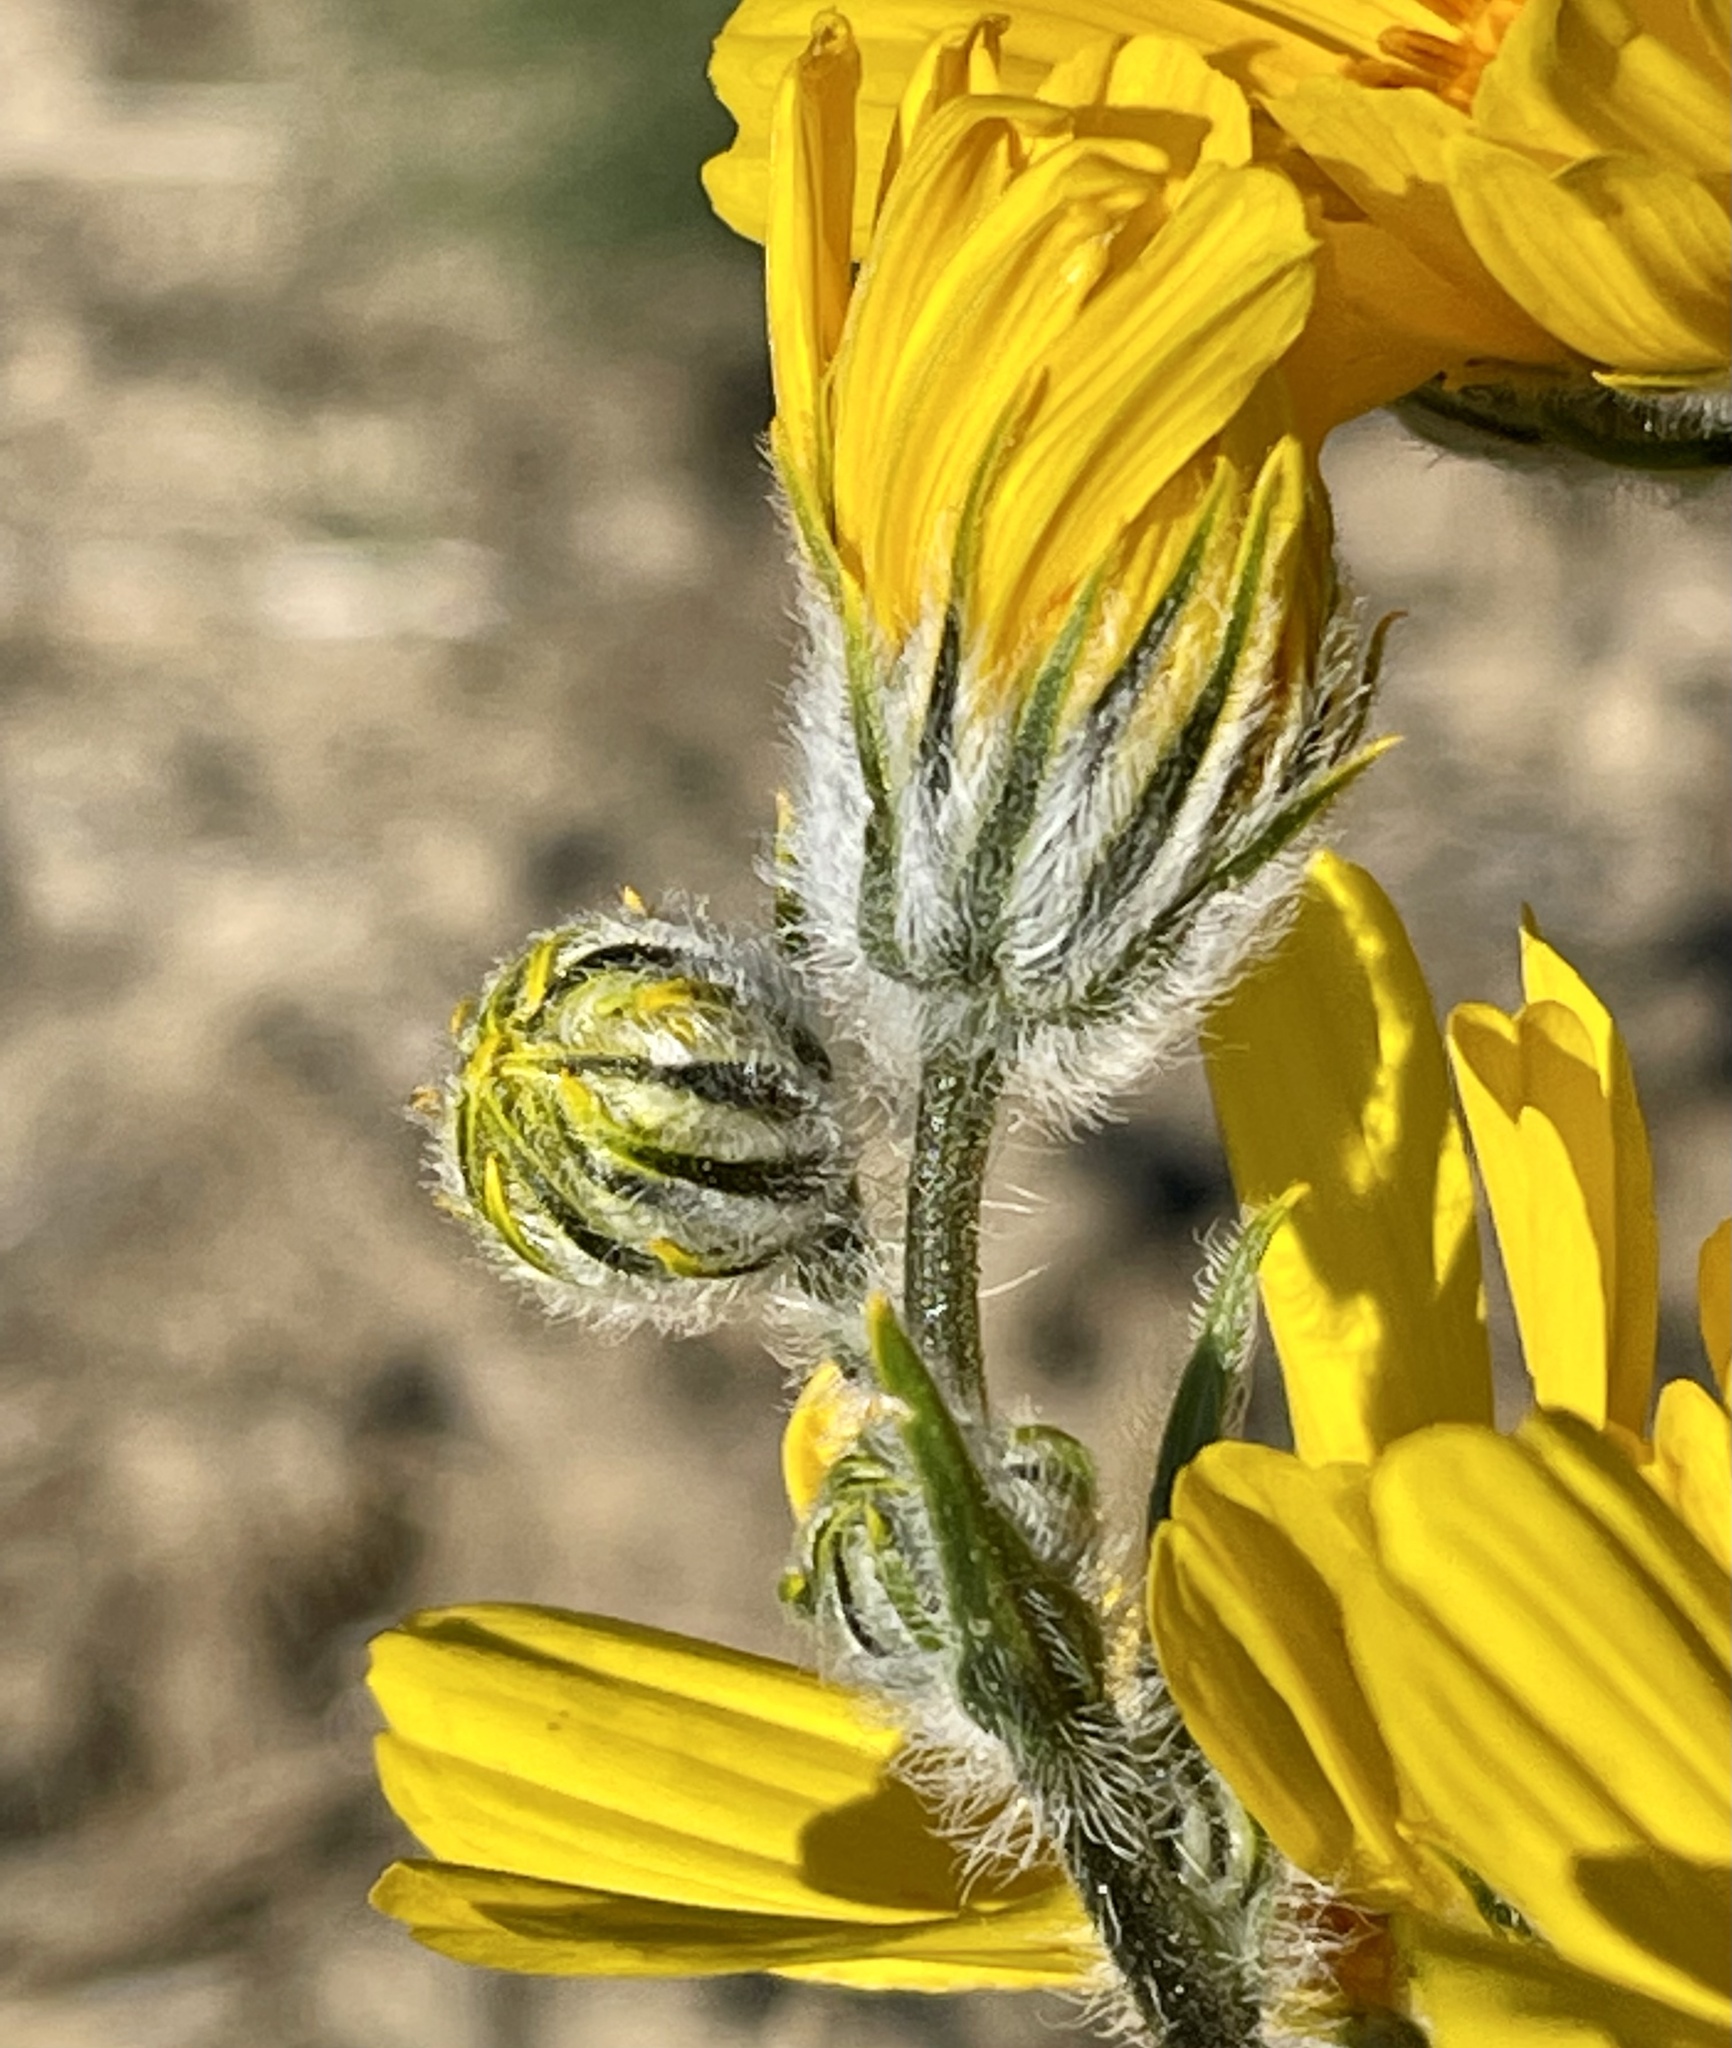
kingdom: Plantae
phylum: Tracheophyta
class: Magnoliopsida
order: Asterales
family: Asteraceae
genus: Geraea
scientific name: Geraea canescens
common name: Desert-gold
